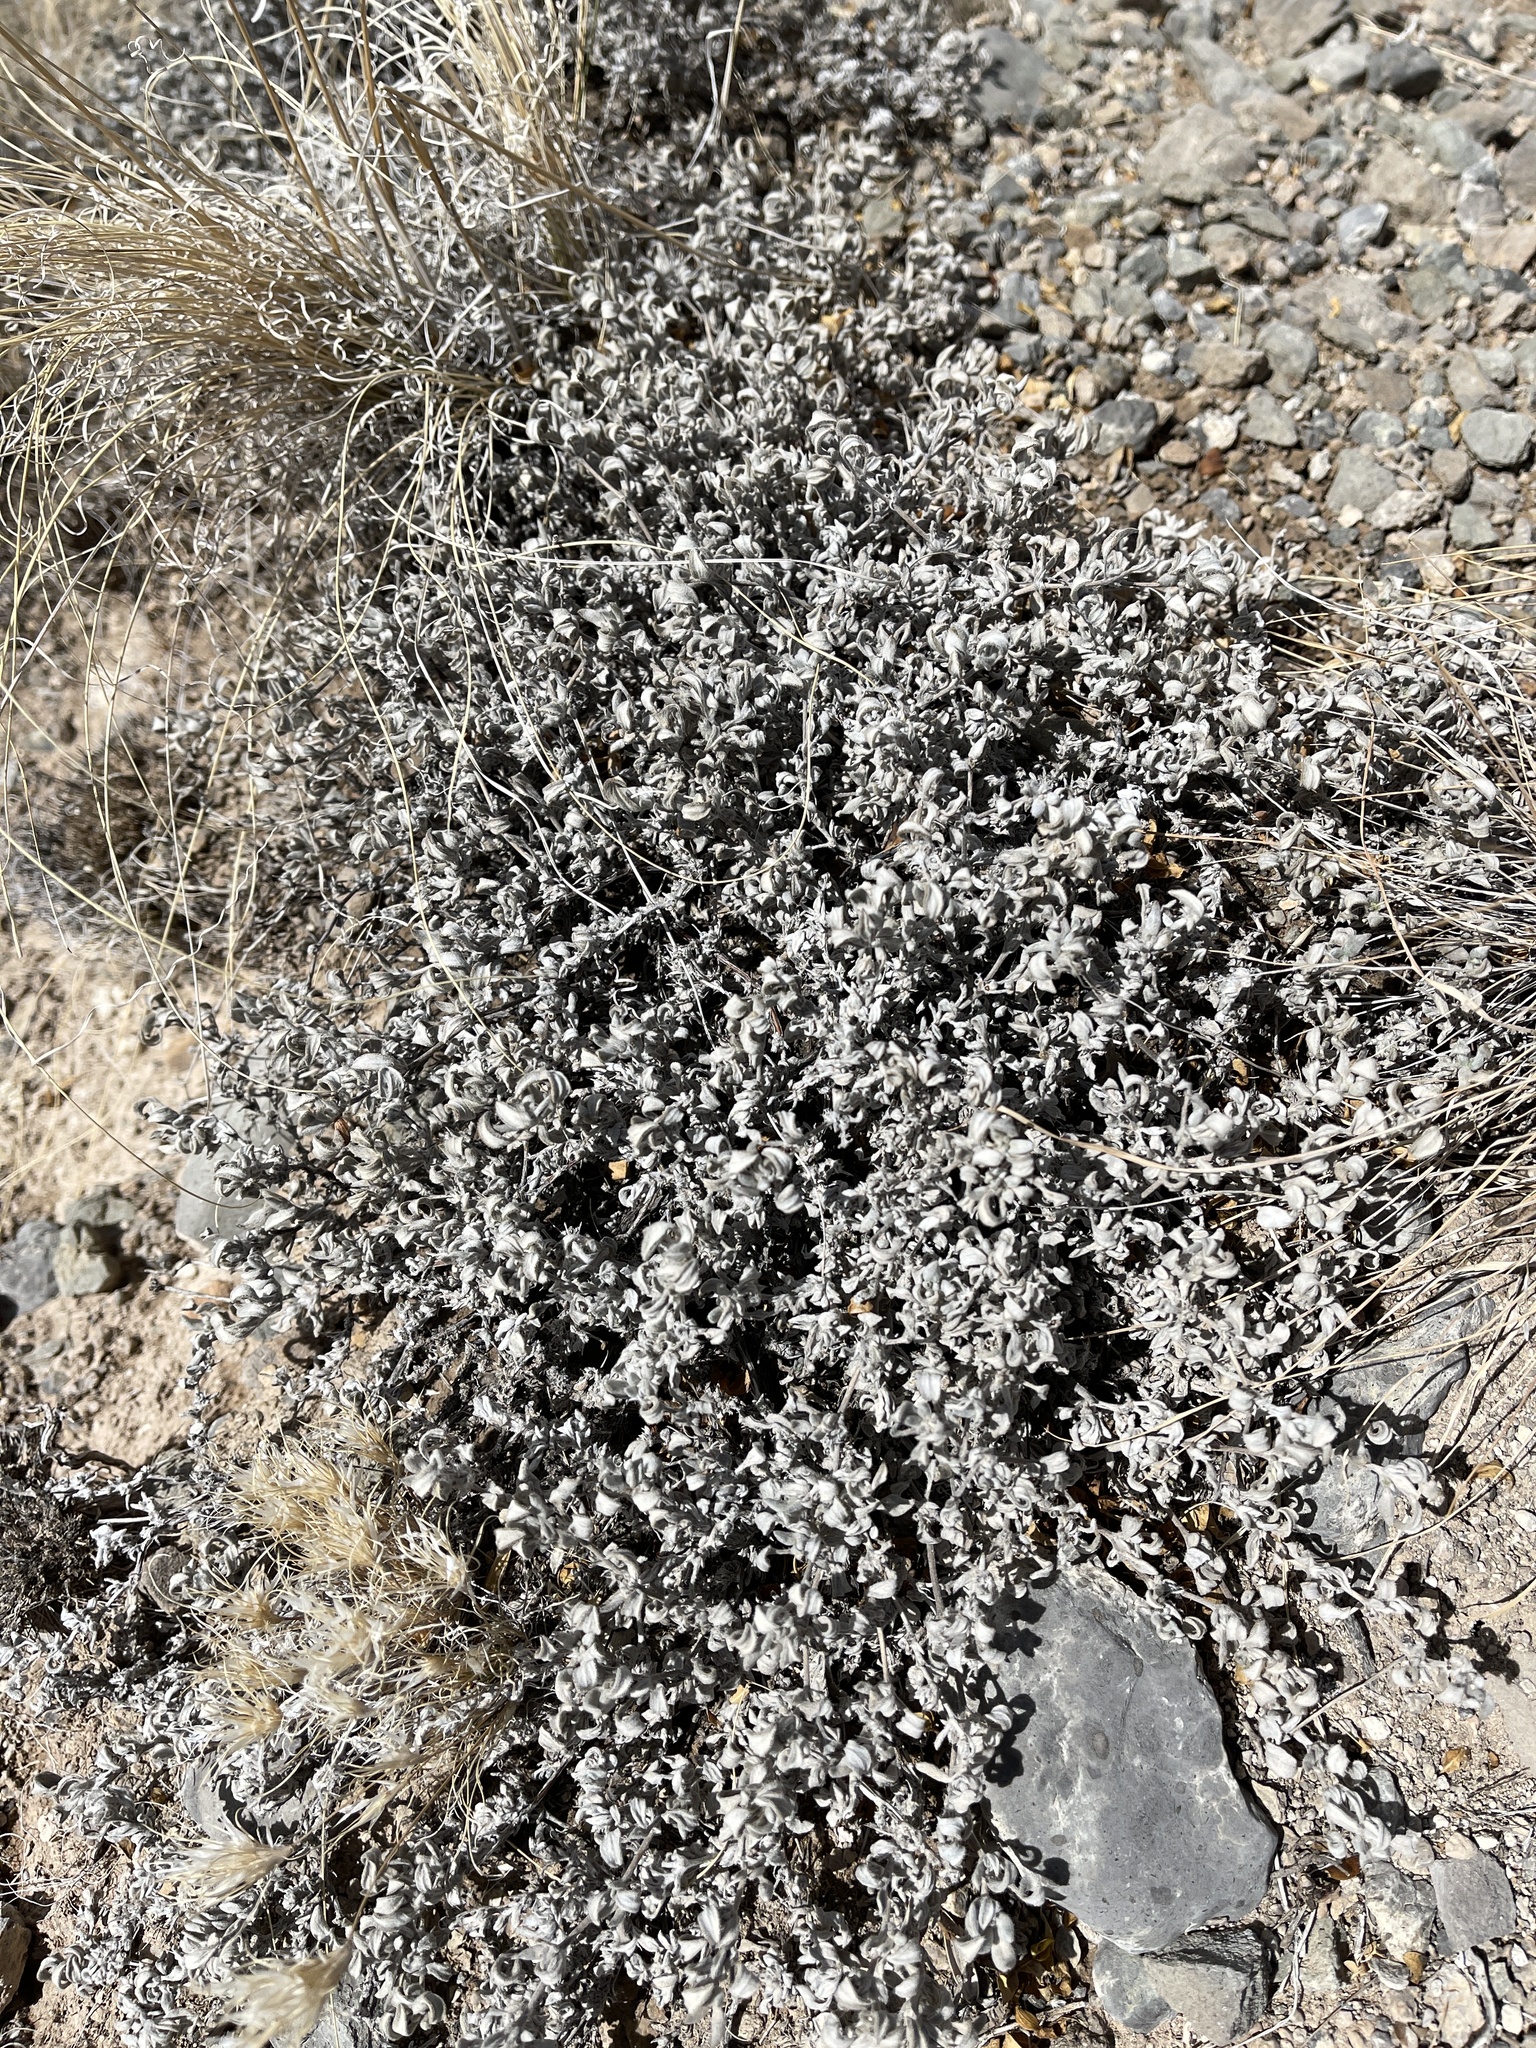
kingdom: Plantae
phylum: Tracheophyta
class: Magnoliopsida
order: Boraginales
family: Ehretiaceae
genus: Tiquilia
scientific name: Tiquilia canescens
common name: Hairy tiquilia
